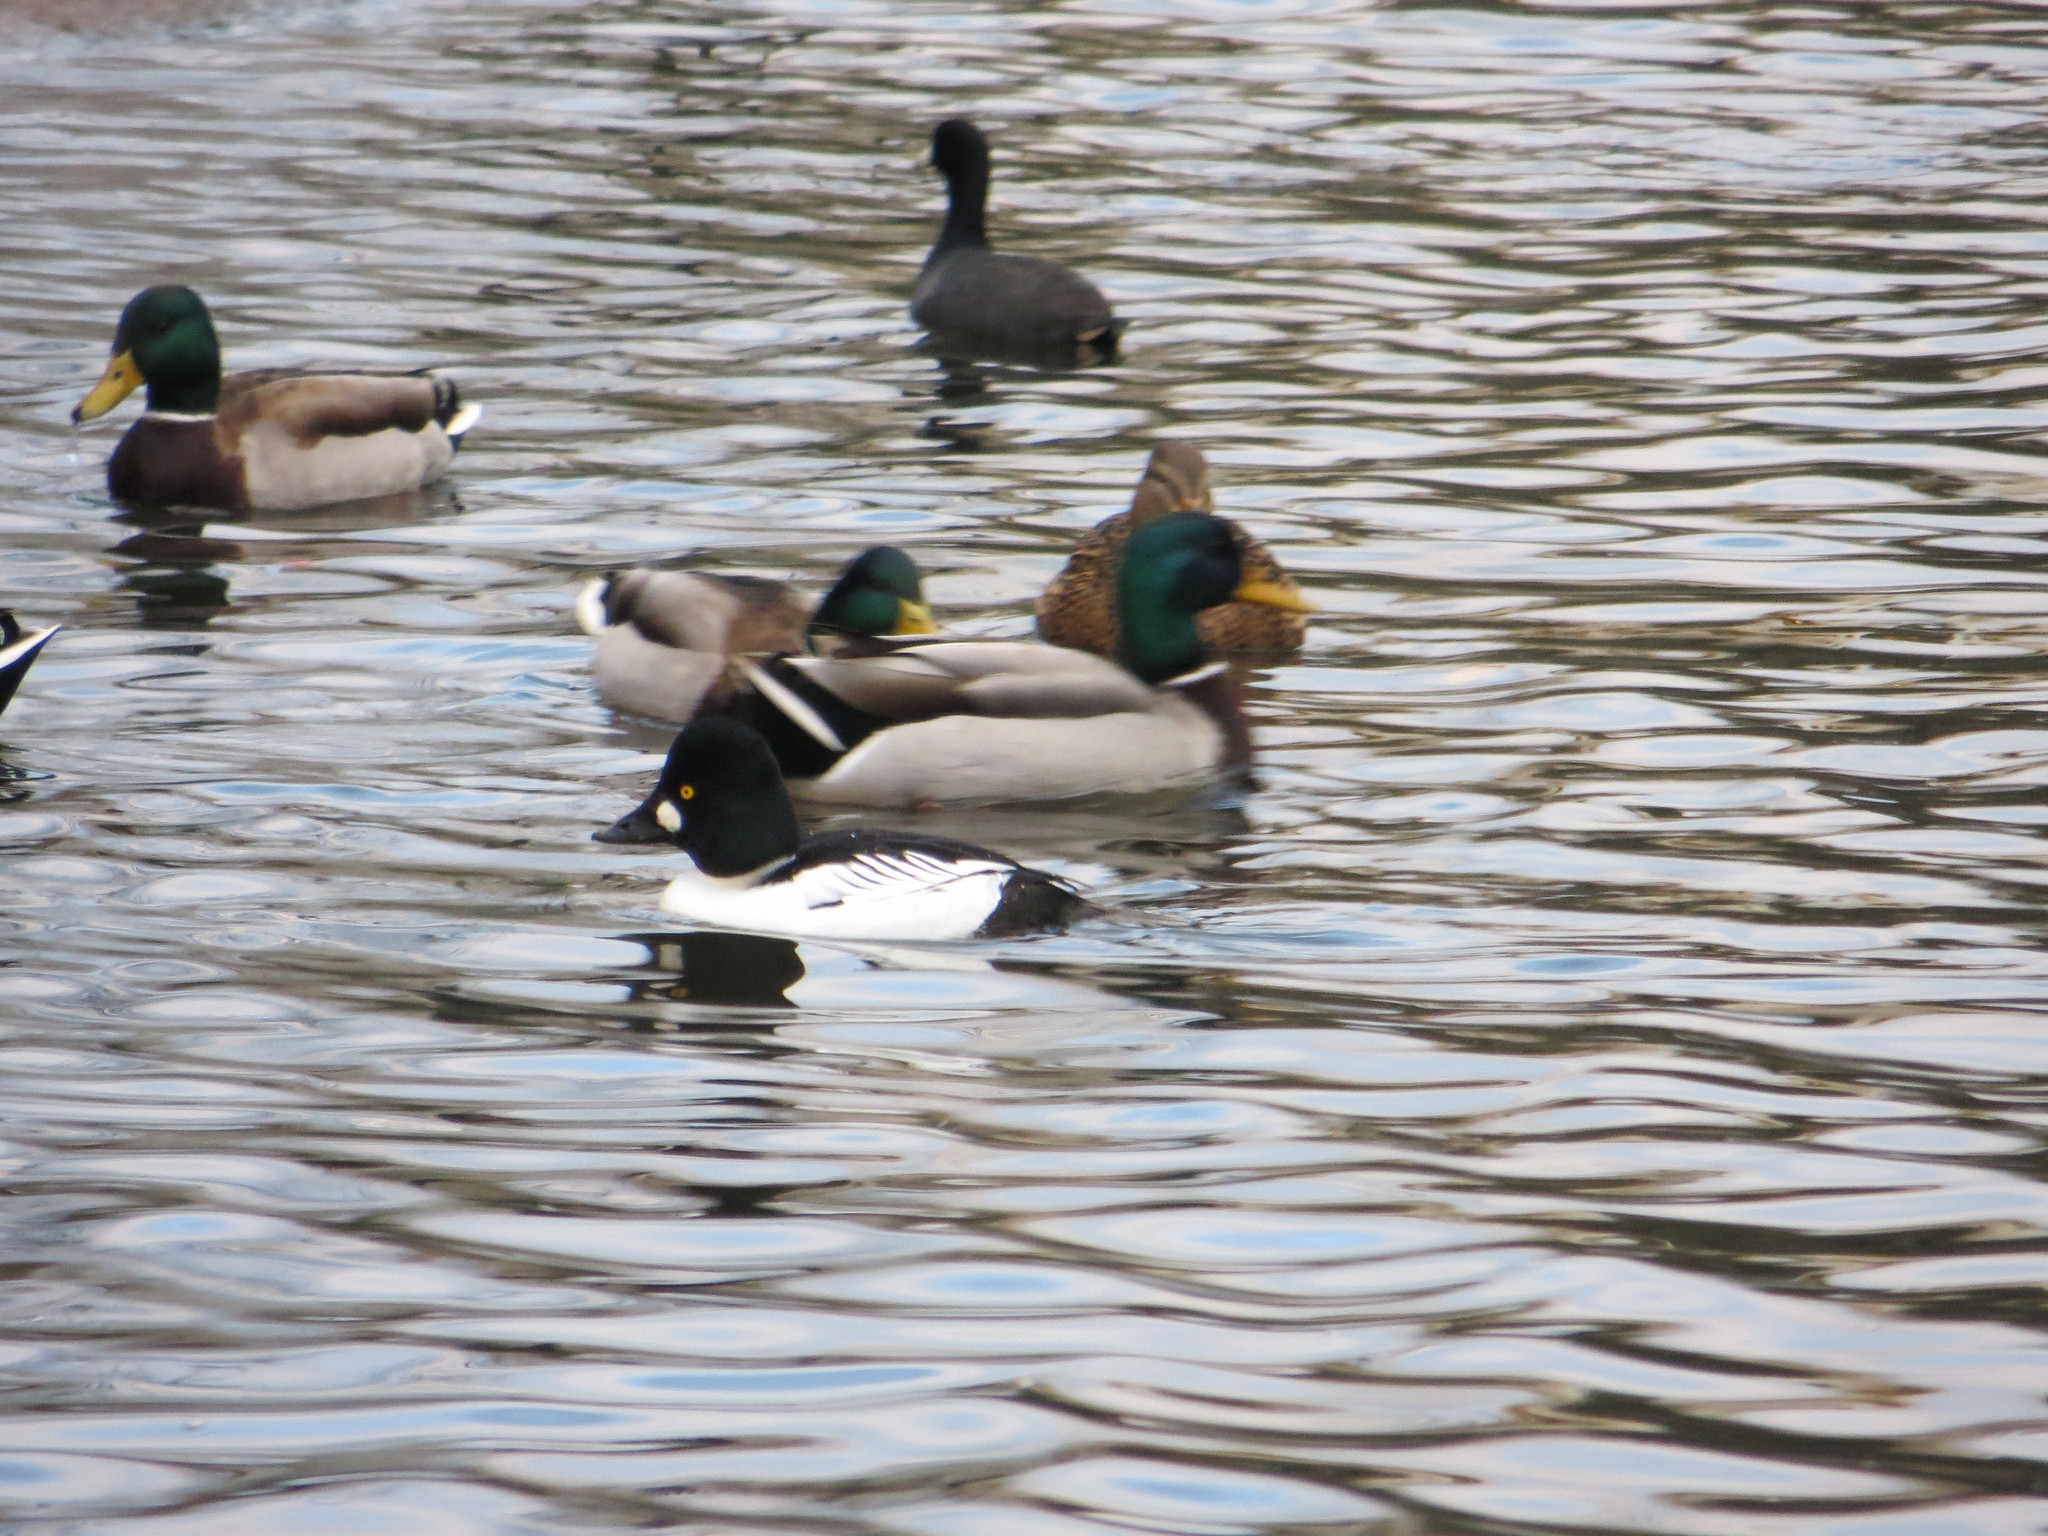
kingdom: Animalia
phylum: Chordata
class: Aves
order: Anseriformes
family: Anatidae
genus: Bucephala
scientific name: Bucephala clangula
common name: Common goldeneye
